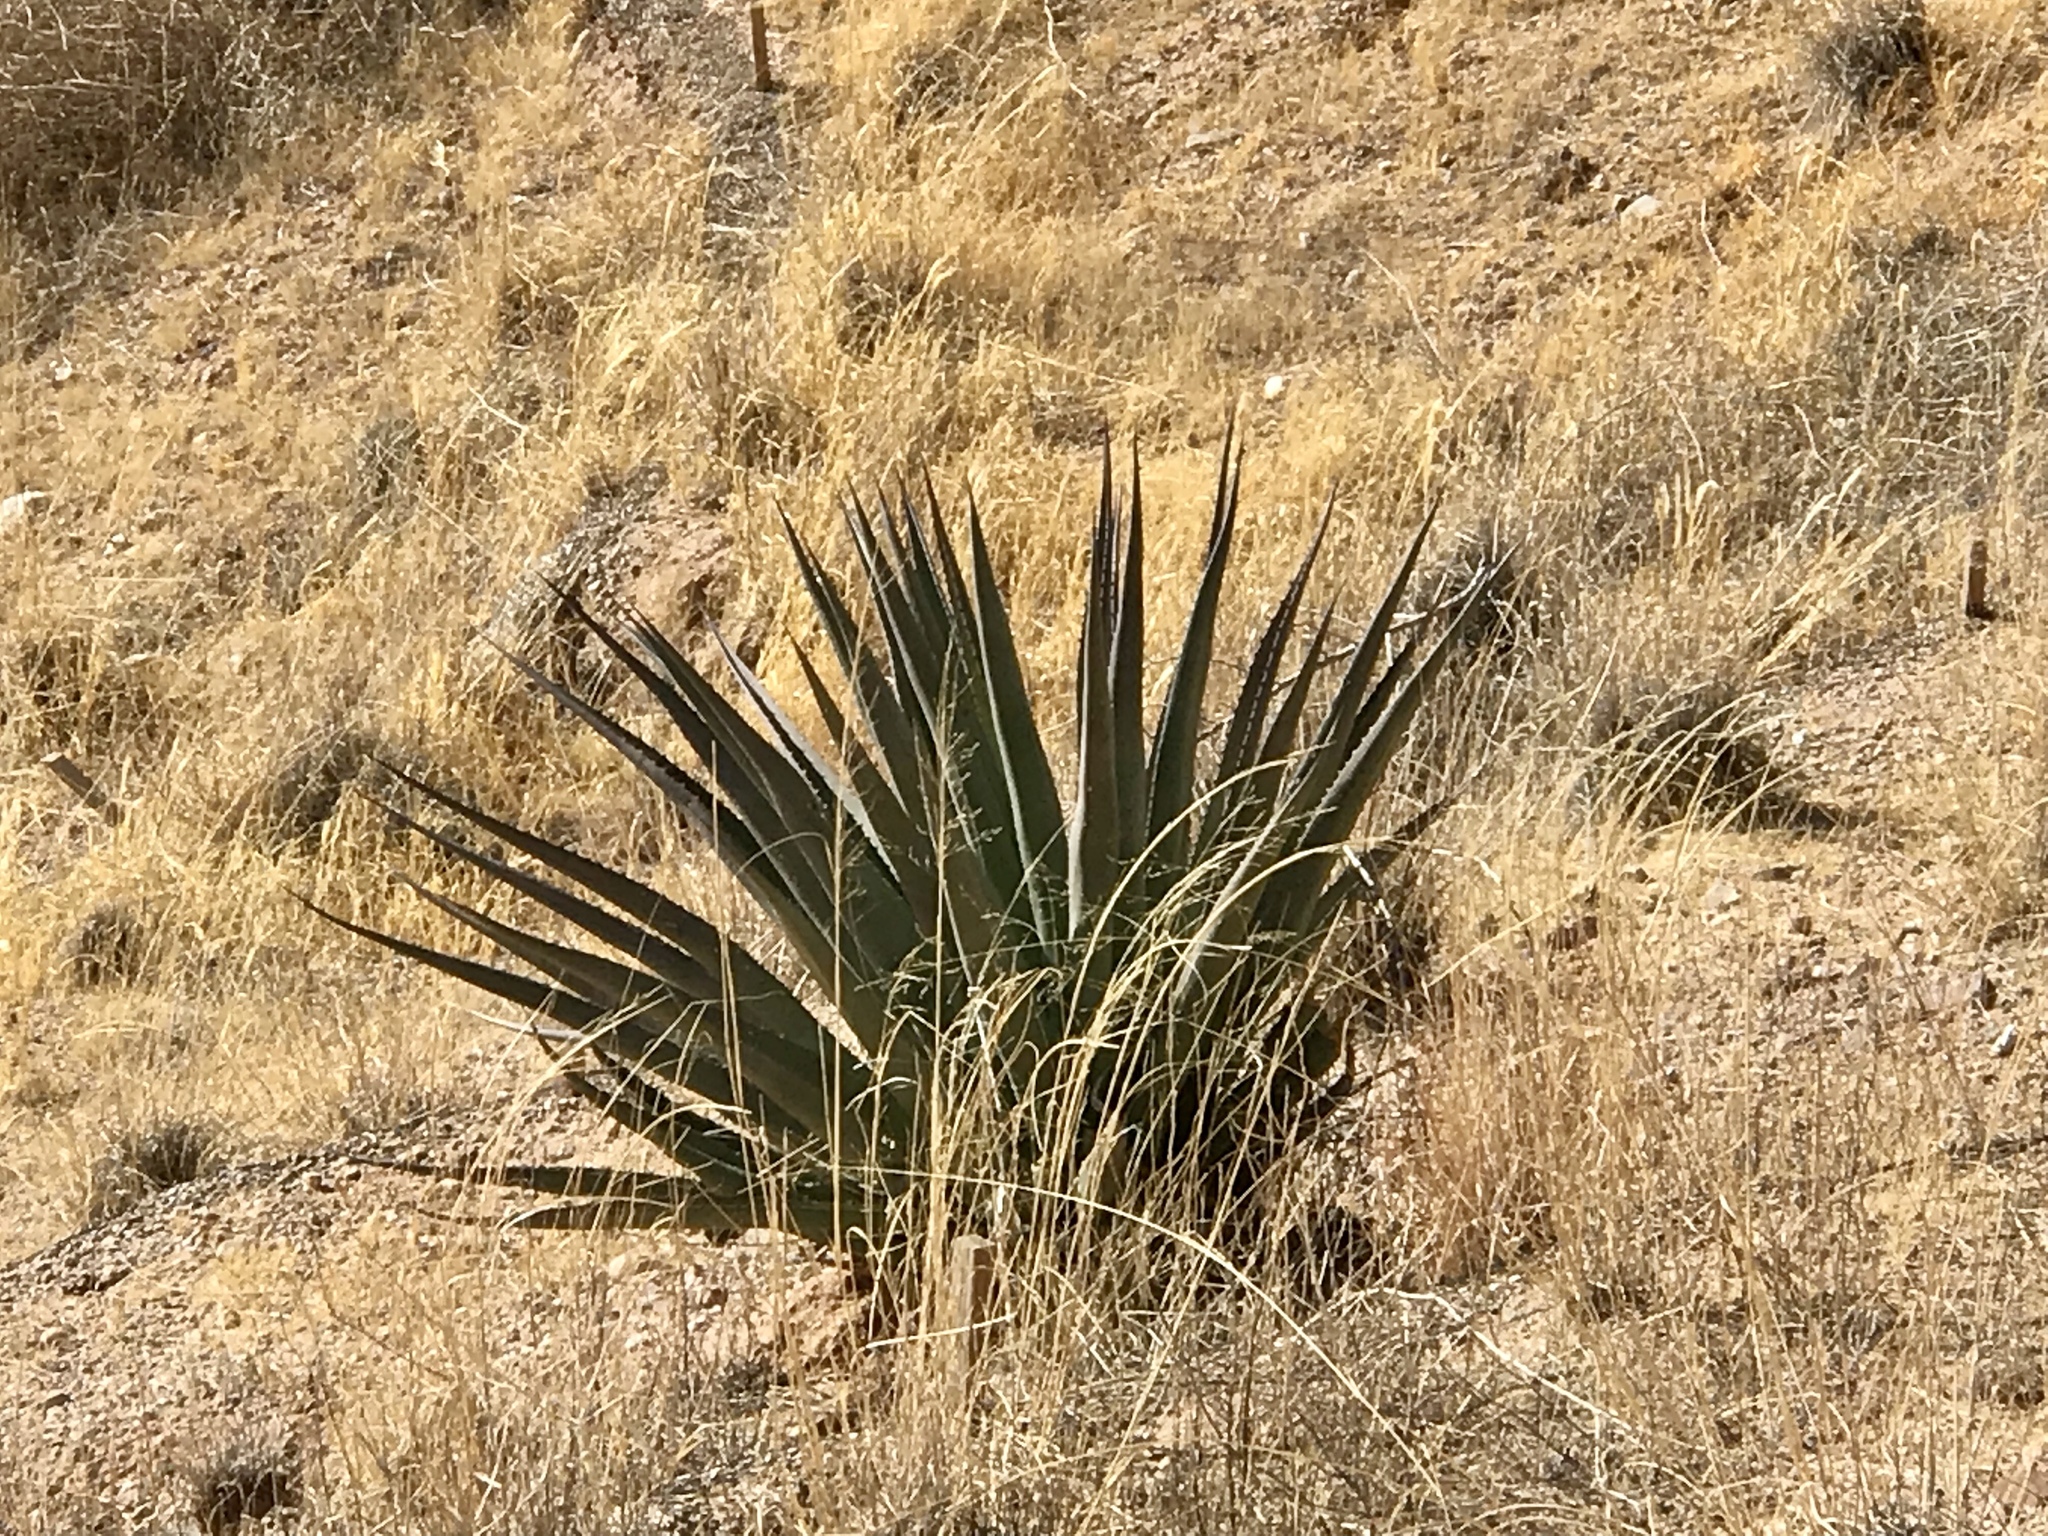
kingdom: Plantae
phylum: Tracheophyta
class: Liliopsida
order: Asparagales
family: Asparagaceae
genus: Agave
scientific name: Agave palmeri
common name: Palmer agave
